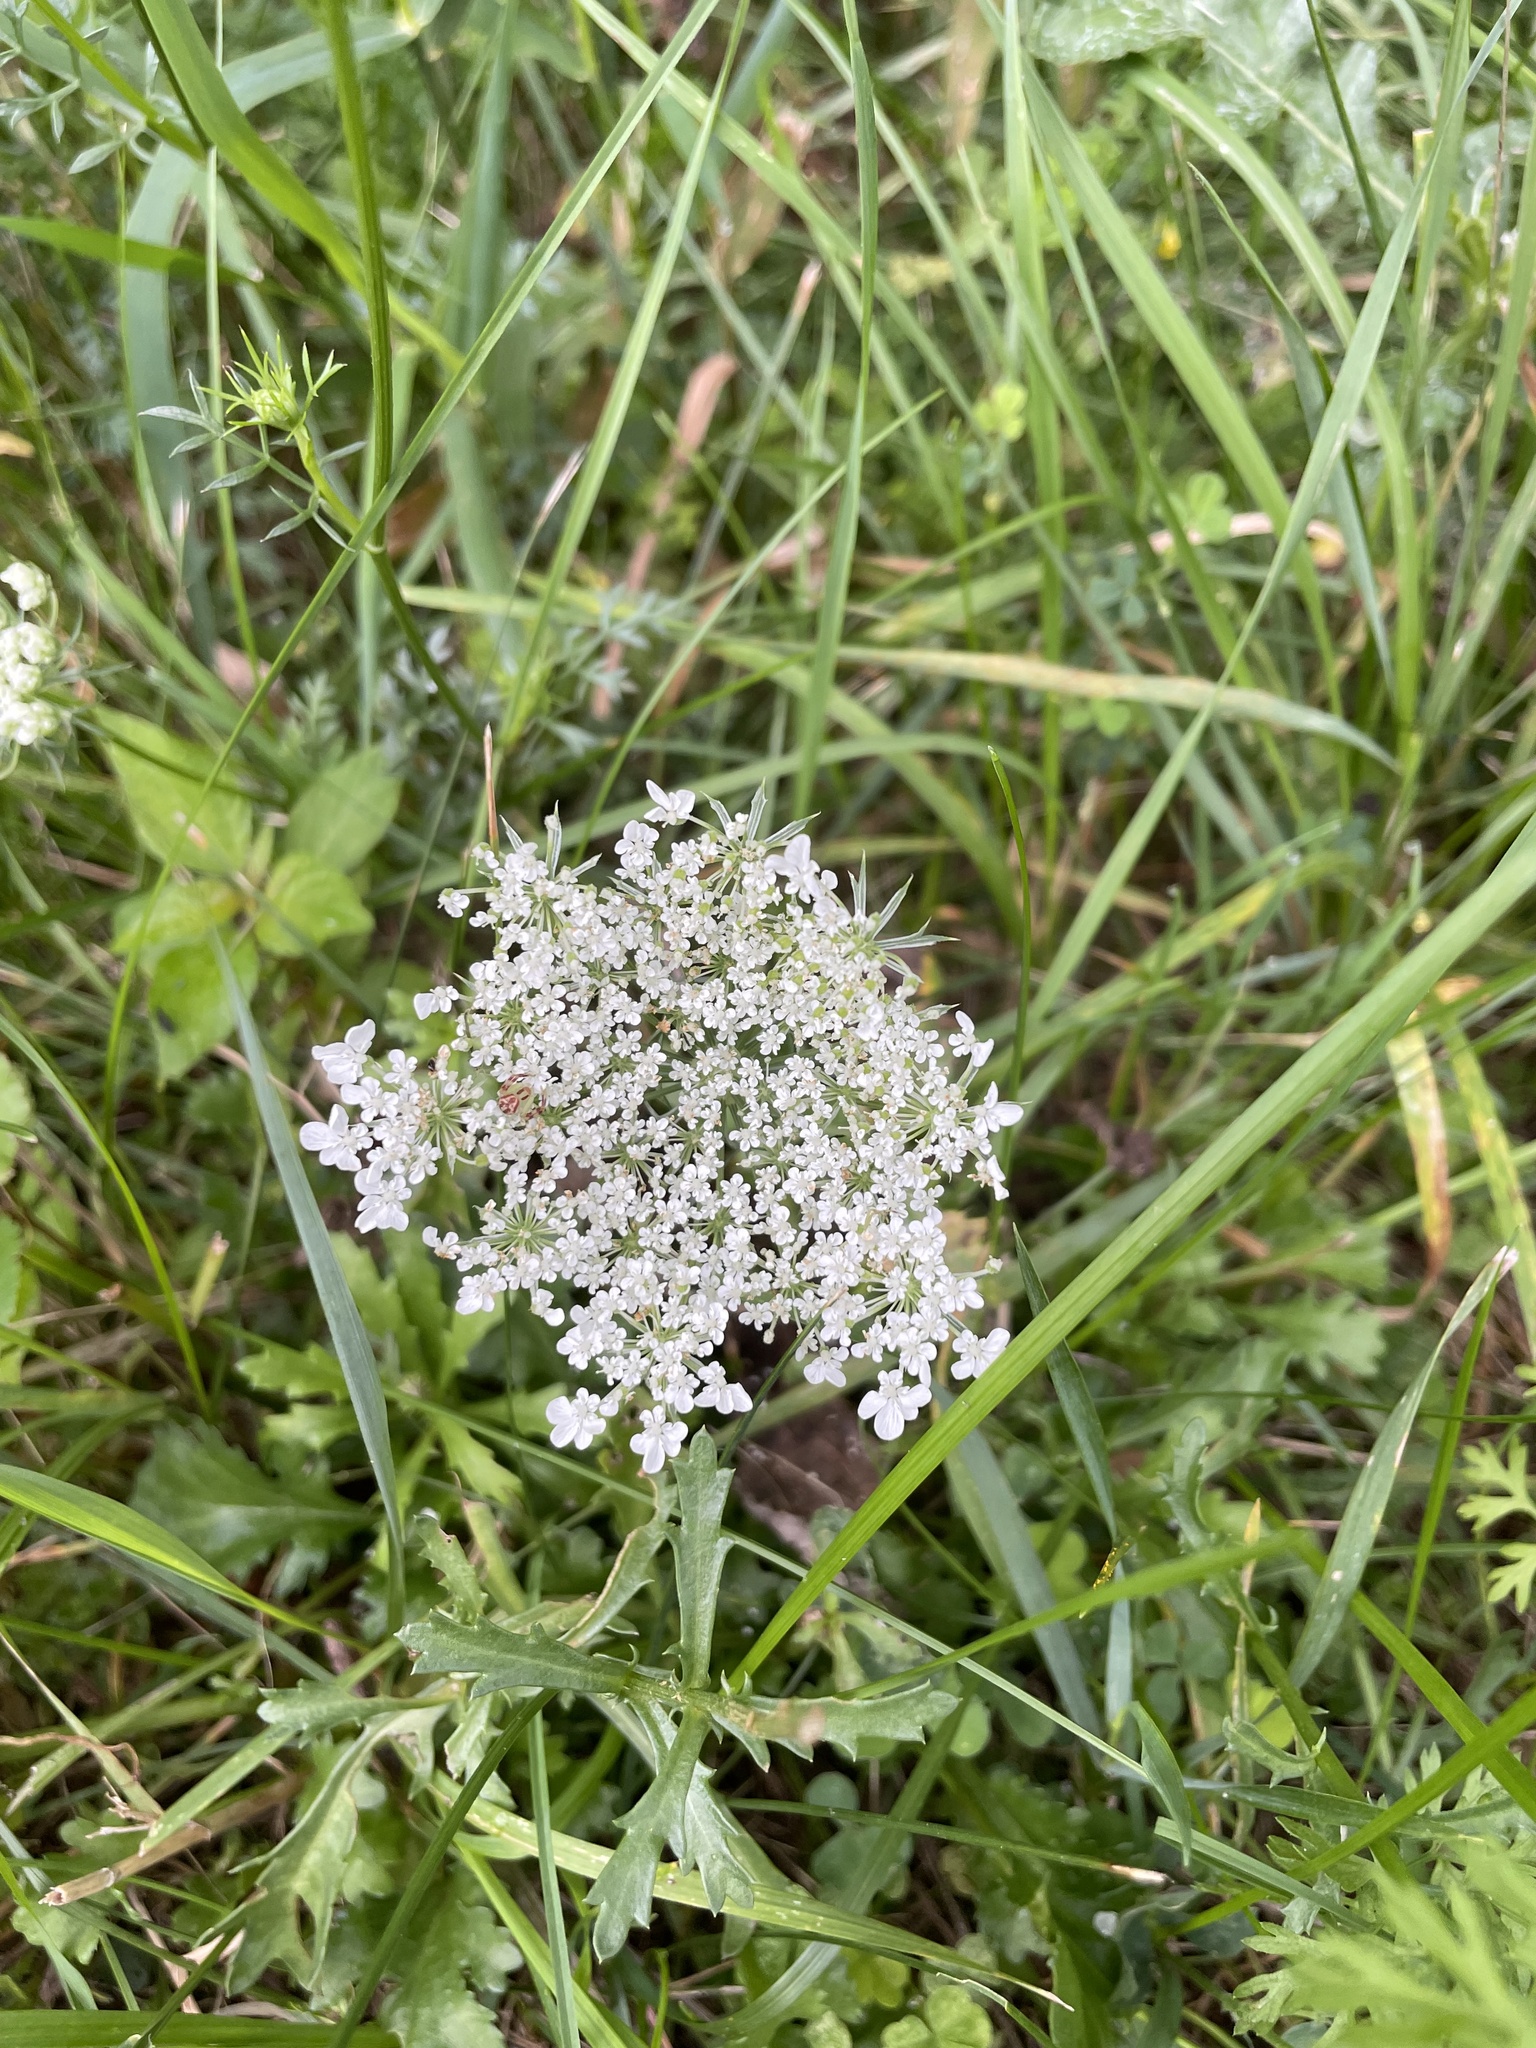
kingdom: Plantae
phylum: Tracheophyta
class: Magnoliopsida
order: Apiales
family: Apiaceae
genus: Daucus
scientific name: Daucus carota
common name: Wild carrot
